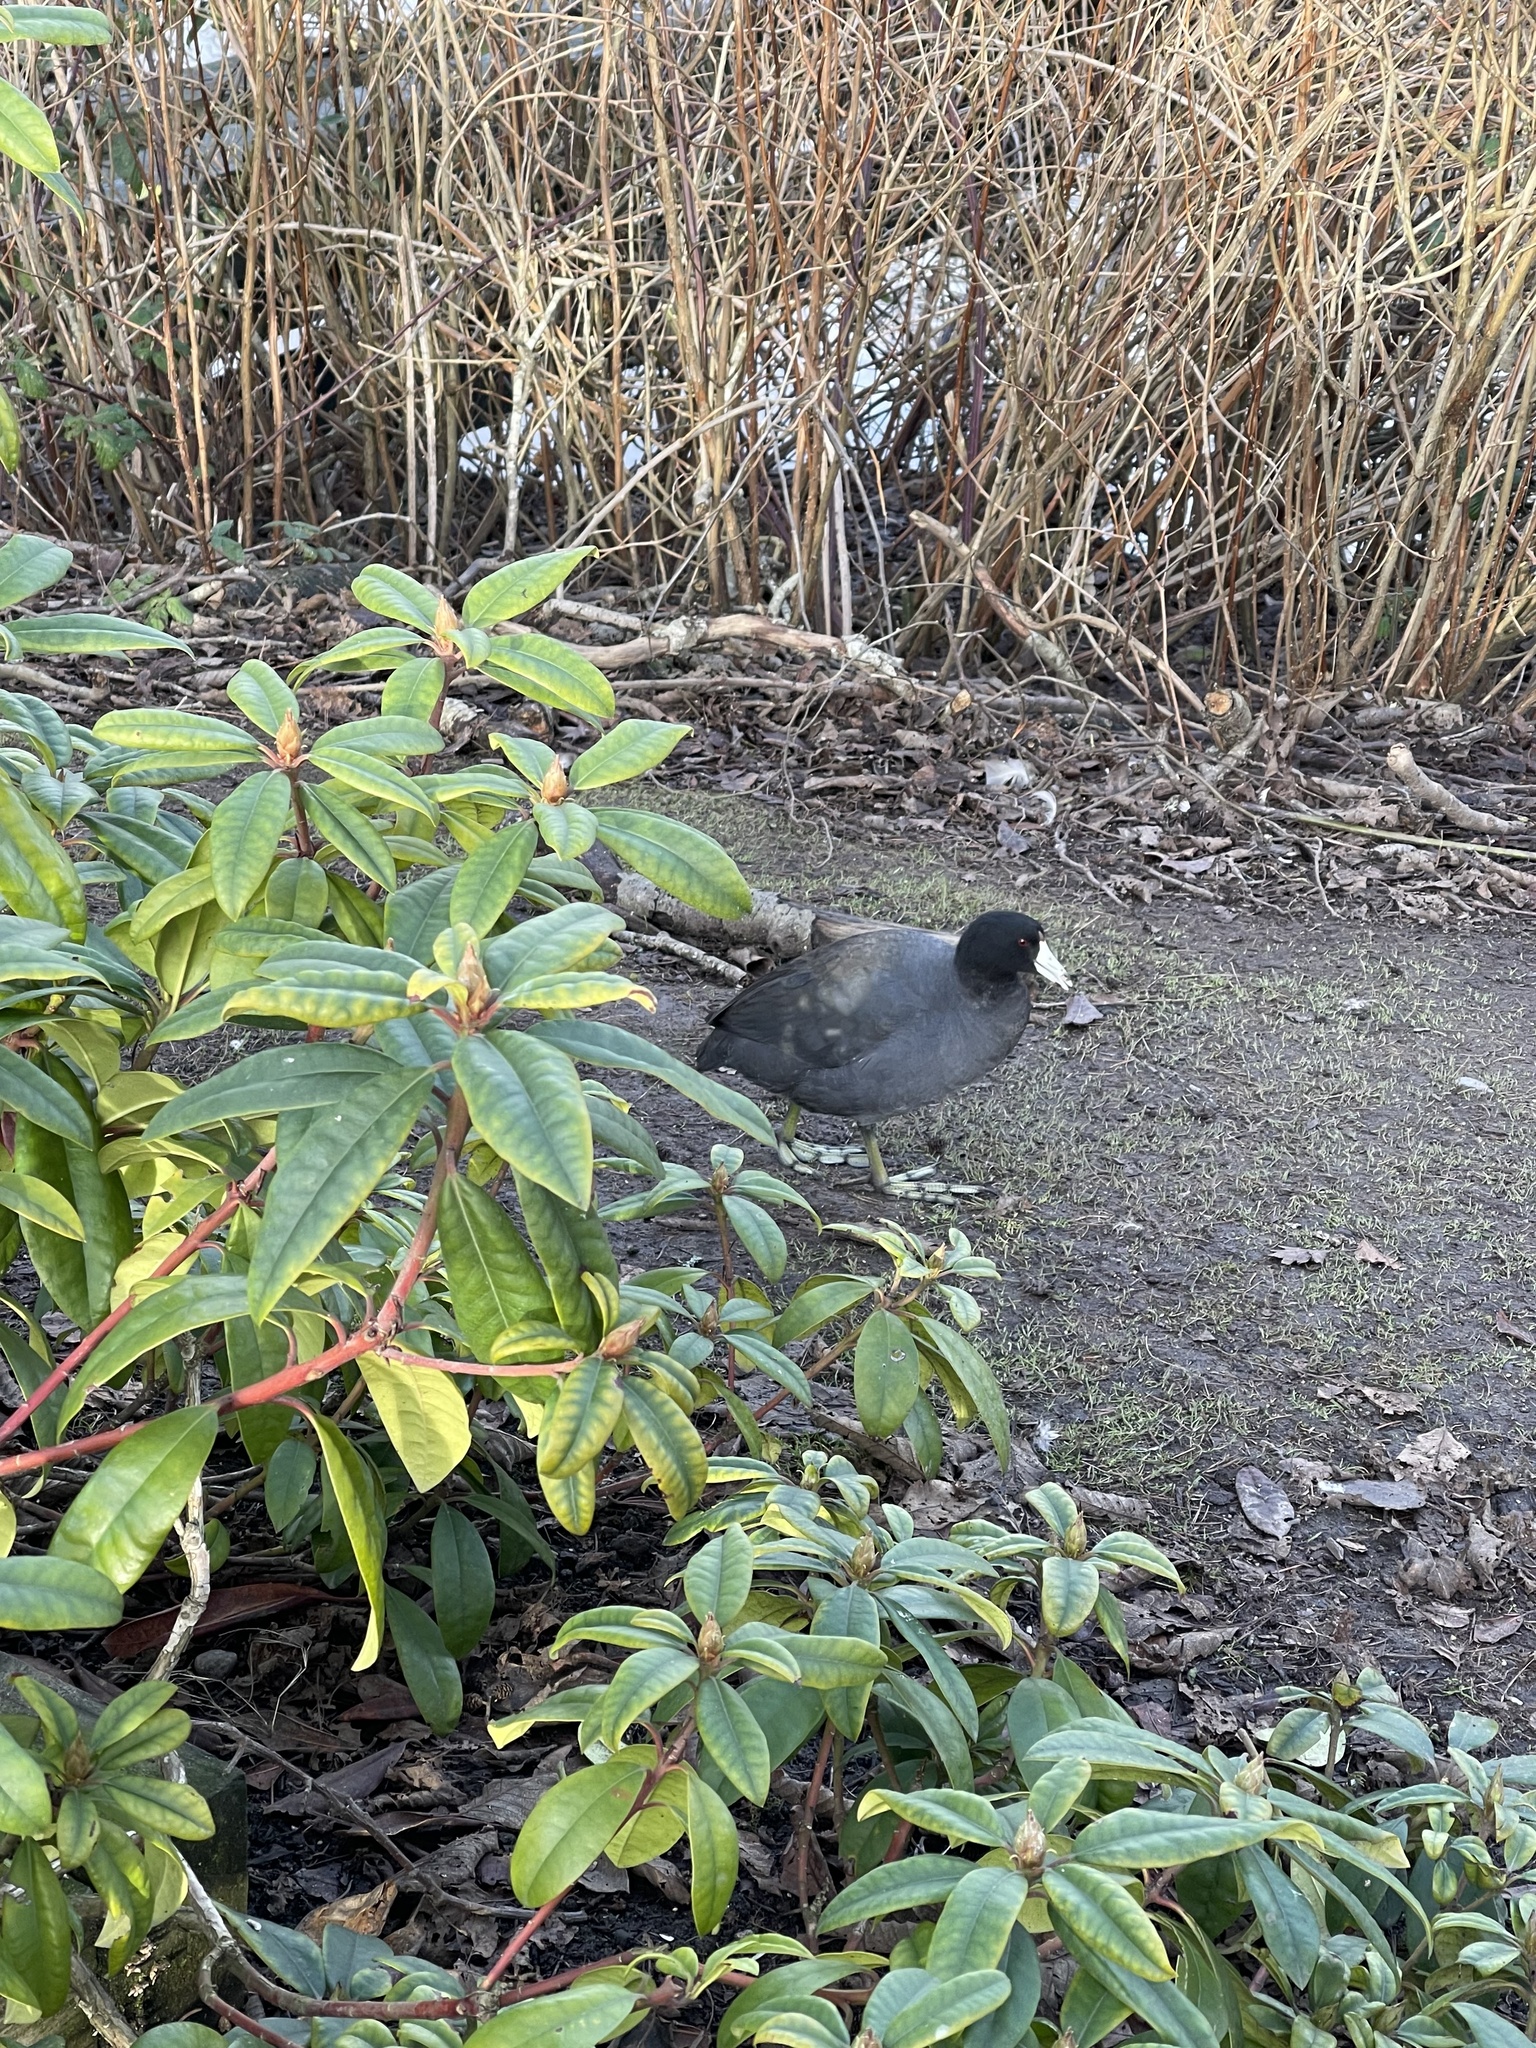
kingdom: Animalia
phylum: Chordata
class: Aves
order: Gruiformes
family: Rallidae
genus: Fulica
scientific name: Fulica americana
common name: American coot
